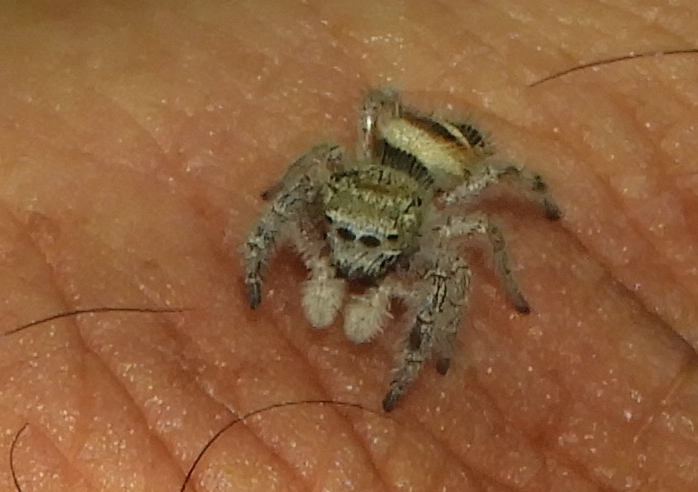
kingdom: Animalia
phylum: Arthropoda
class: Arachnida
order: Araneae
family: Salticidae
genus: Phidippus
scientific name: Phidippus pacosauritus
